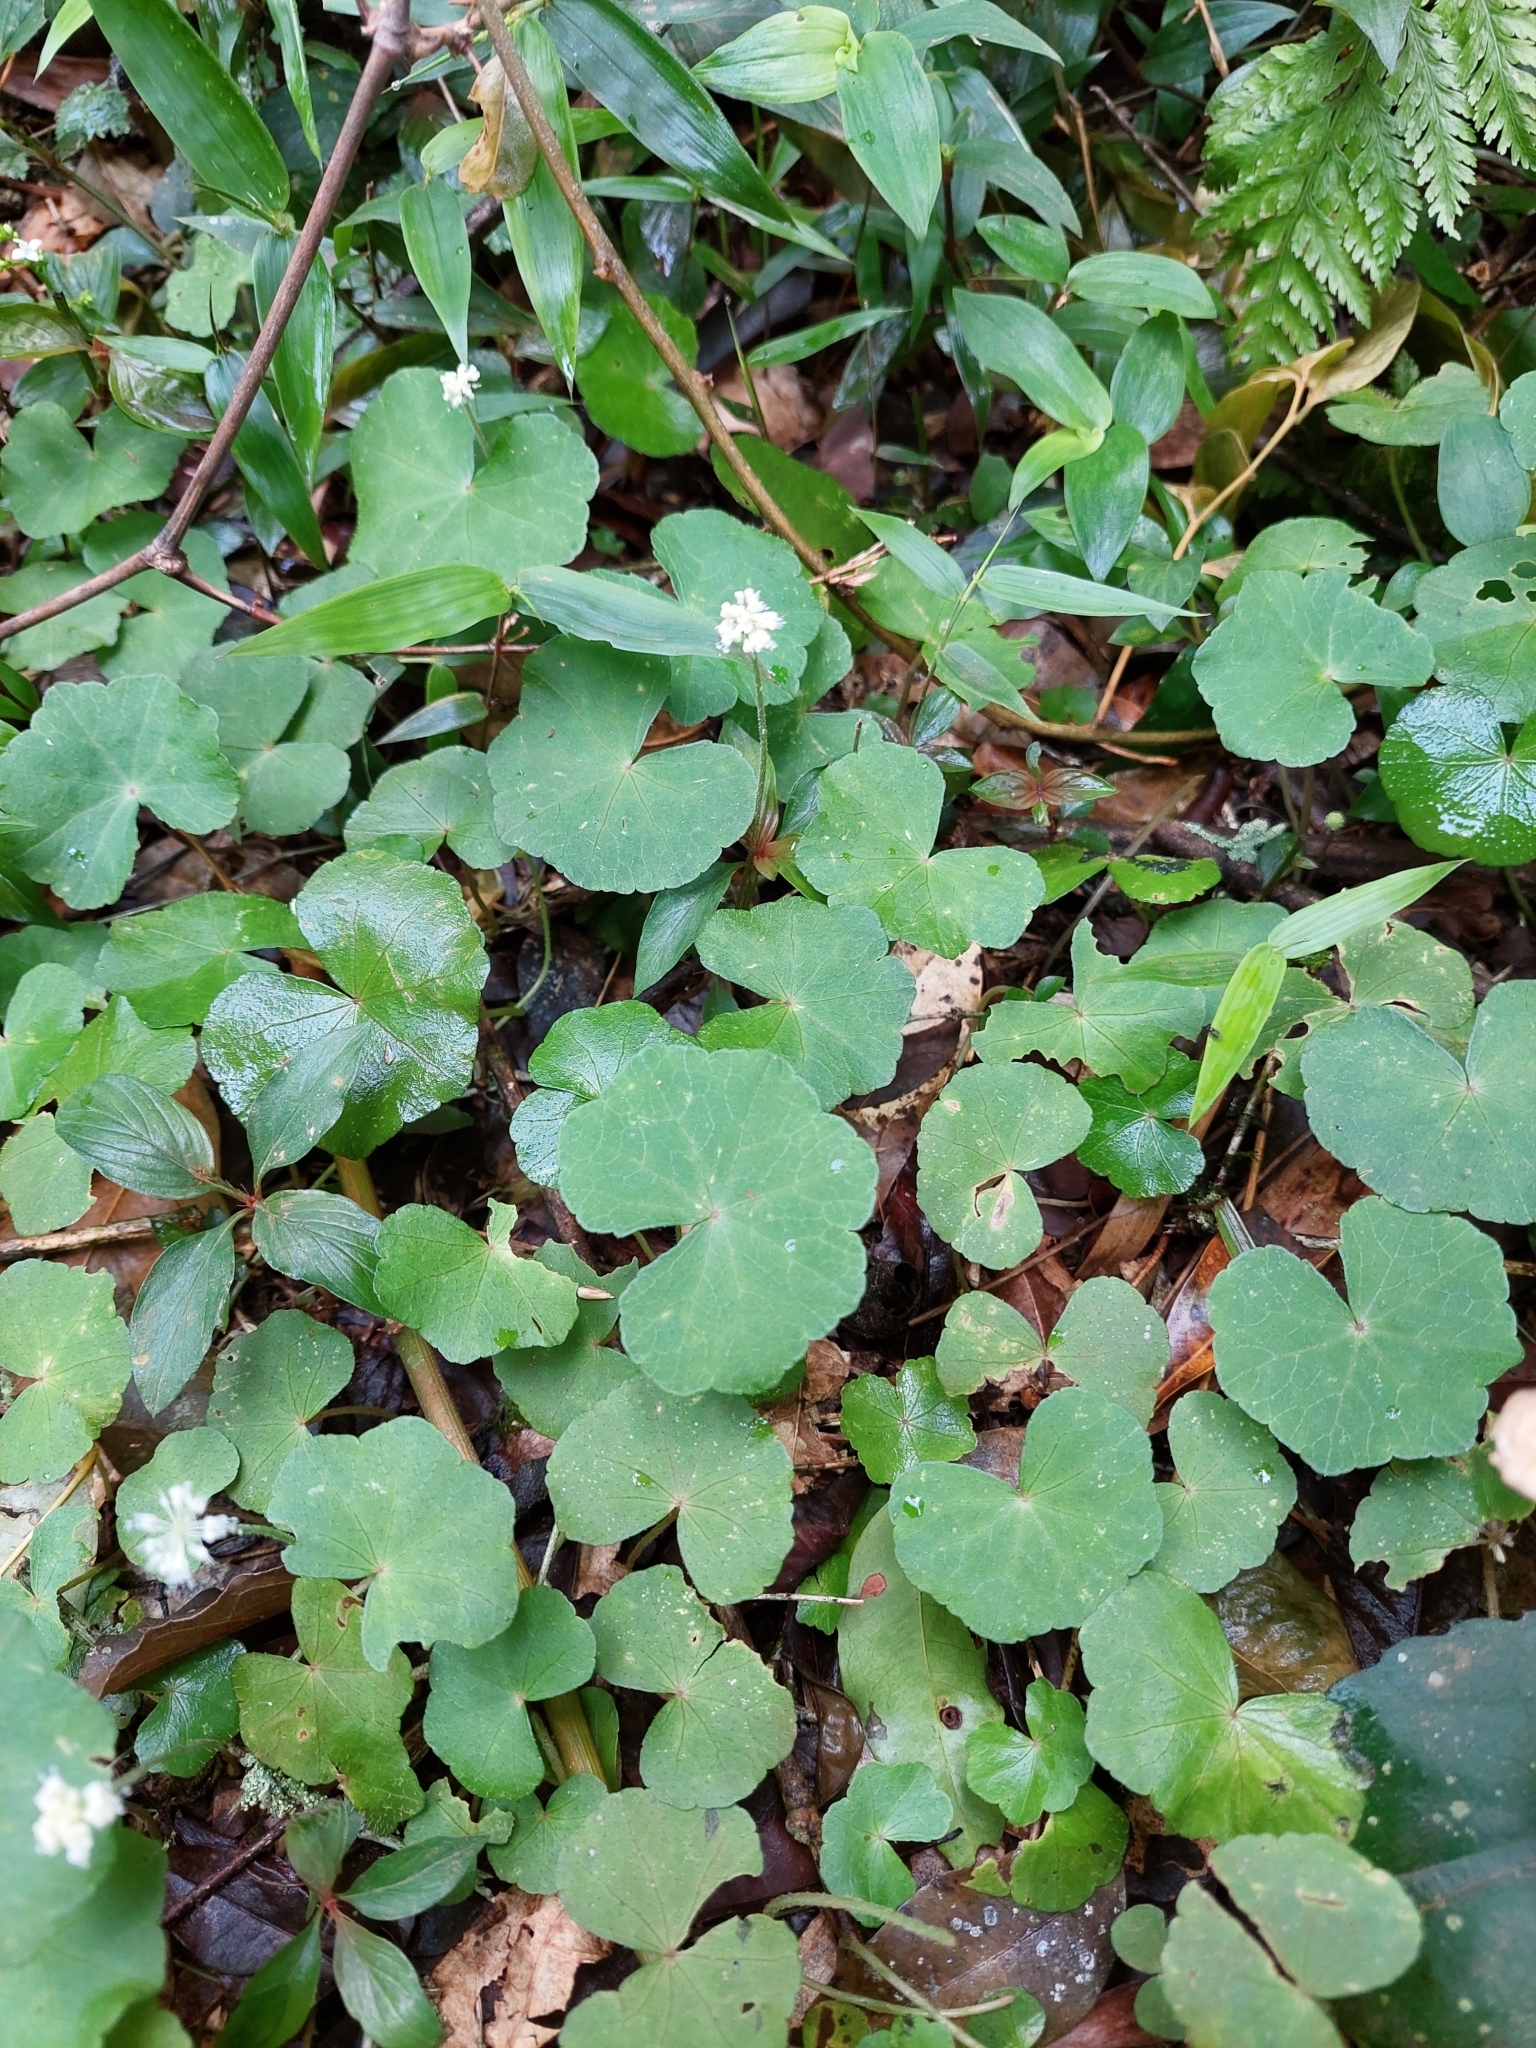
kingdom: Plantae
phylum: Tracheophyta
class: Magnoliopsida
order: Apiales
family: Araliaceae
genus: Hydrocotyle
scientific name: Hydrocotyle leucocephala
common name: Brazilian pennywort
